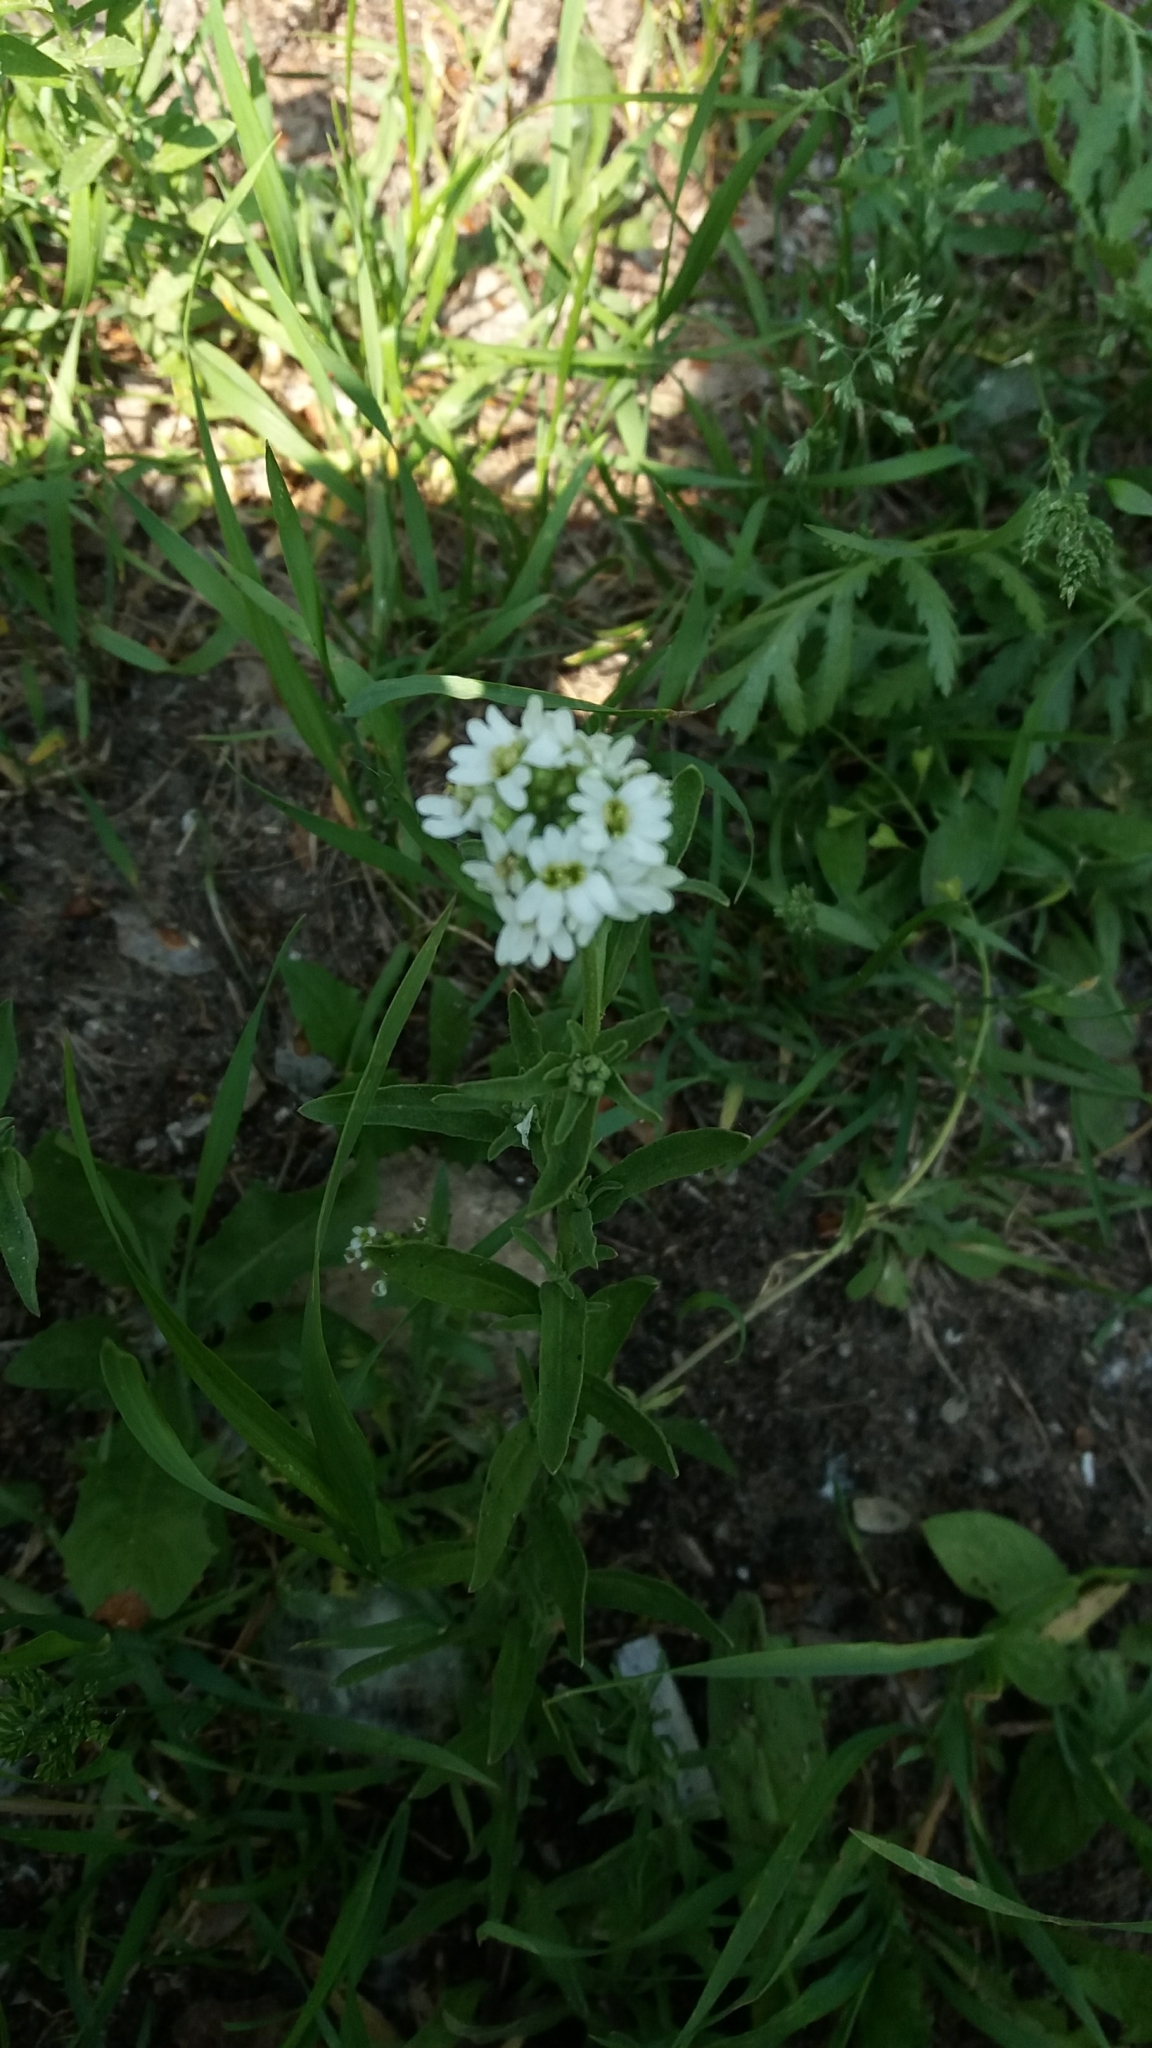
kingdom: Plantae
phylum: Tracheophyta
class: Magnoliopsida
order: Brassicales
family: Brassicaceae
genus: Berteroa
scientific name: Berteroa incana
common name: Hoary alison
